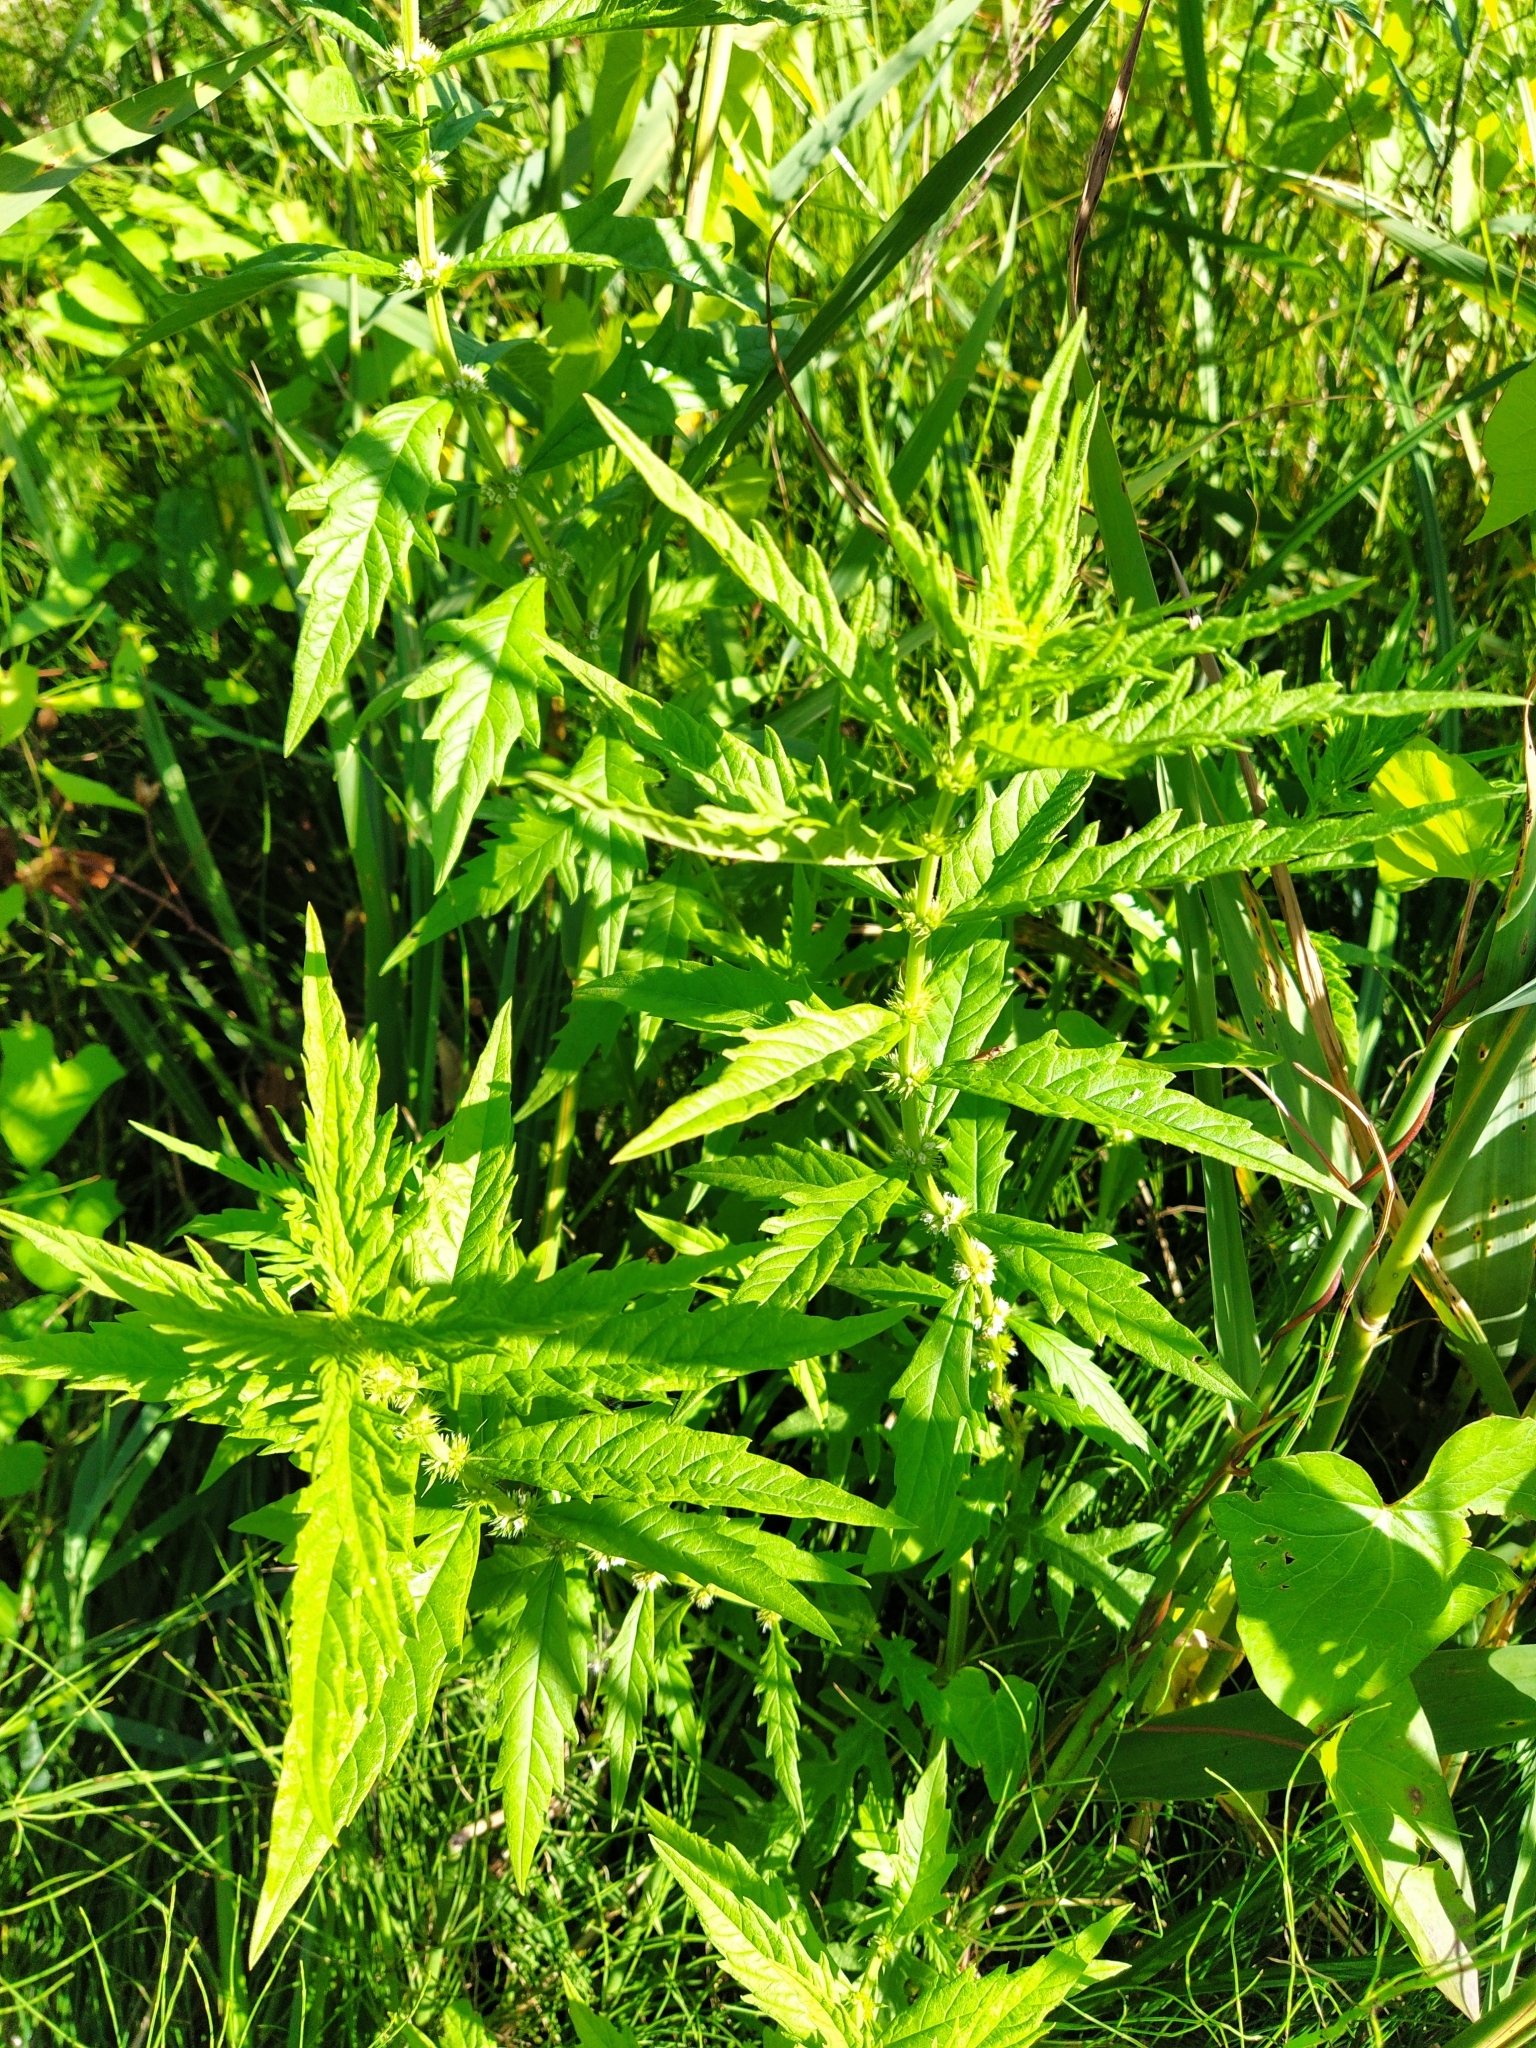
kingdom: Plantae
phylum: Tracheophyta
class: Magnoliopsida
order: Lamiales
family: Lamiaceae
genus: Lycopus
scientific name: Lycopus europaeus
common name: European bugleweed
